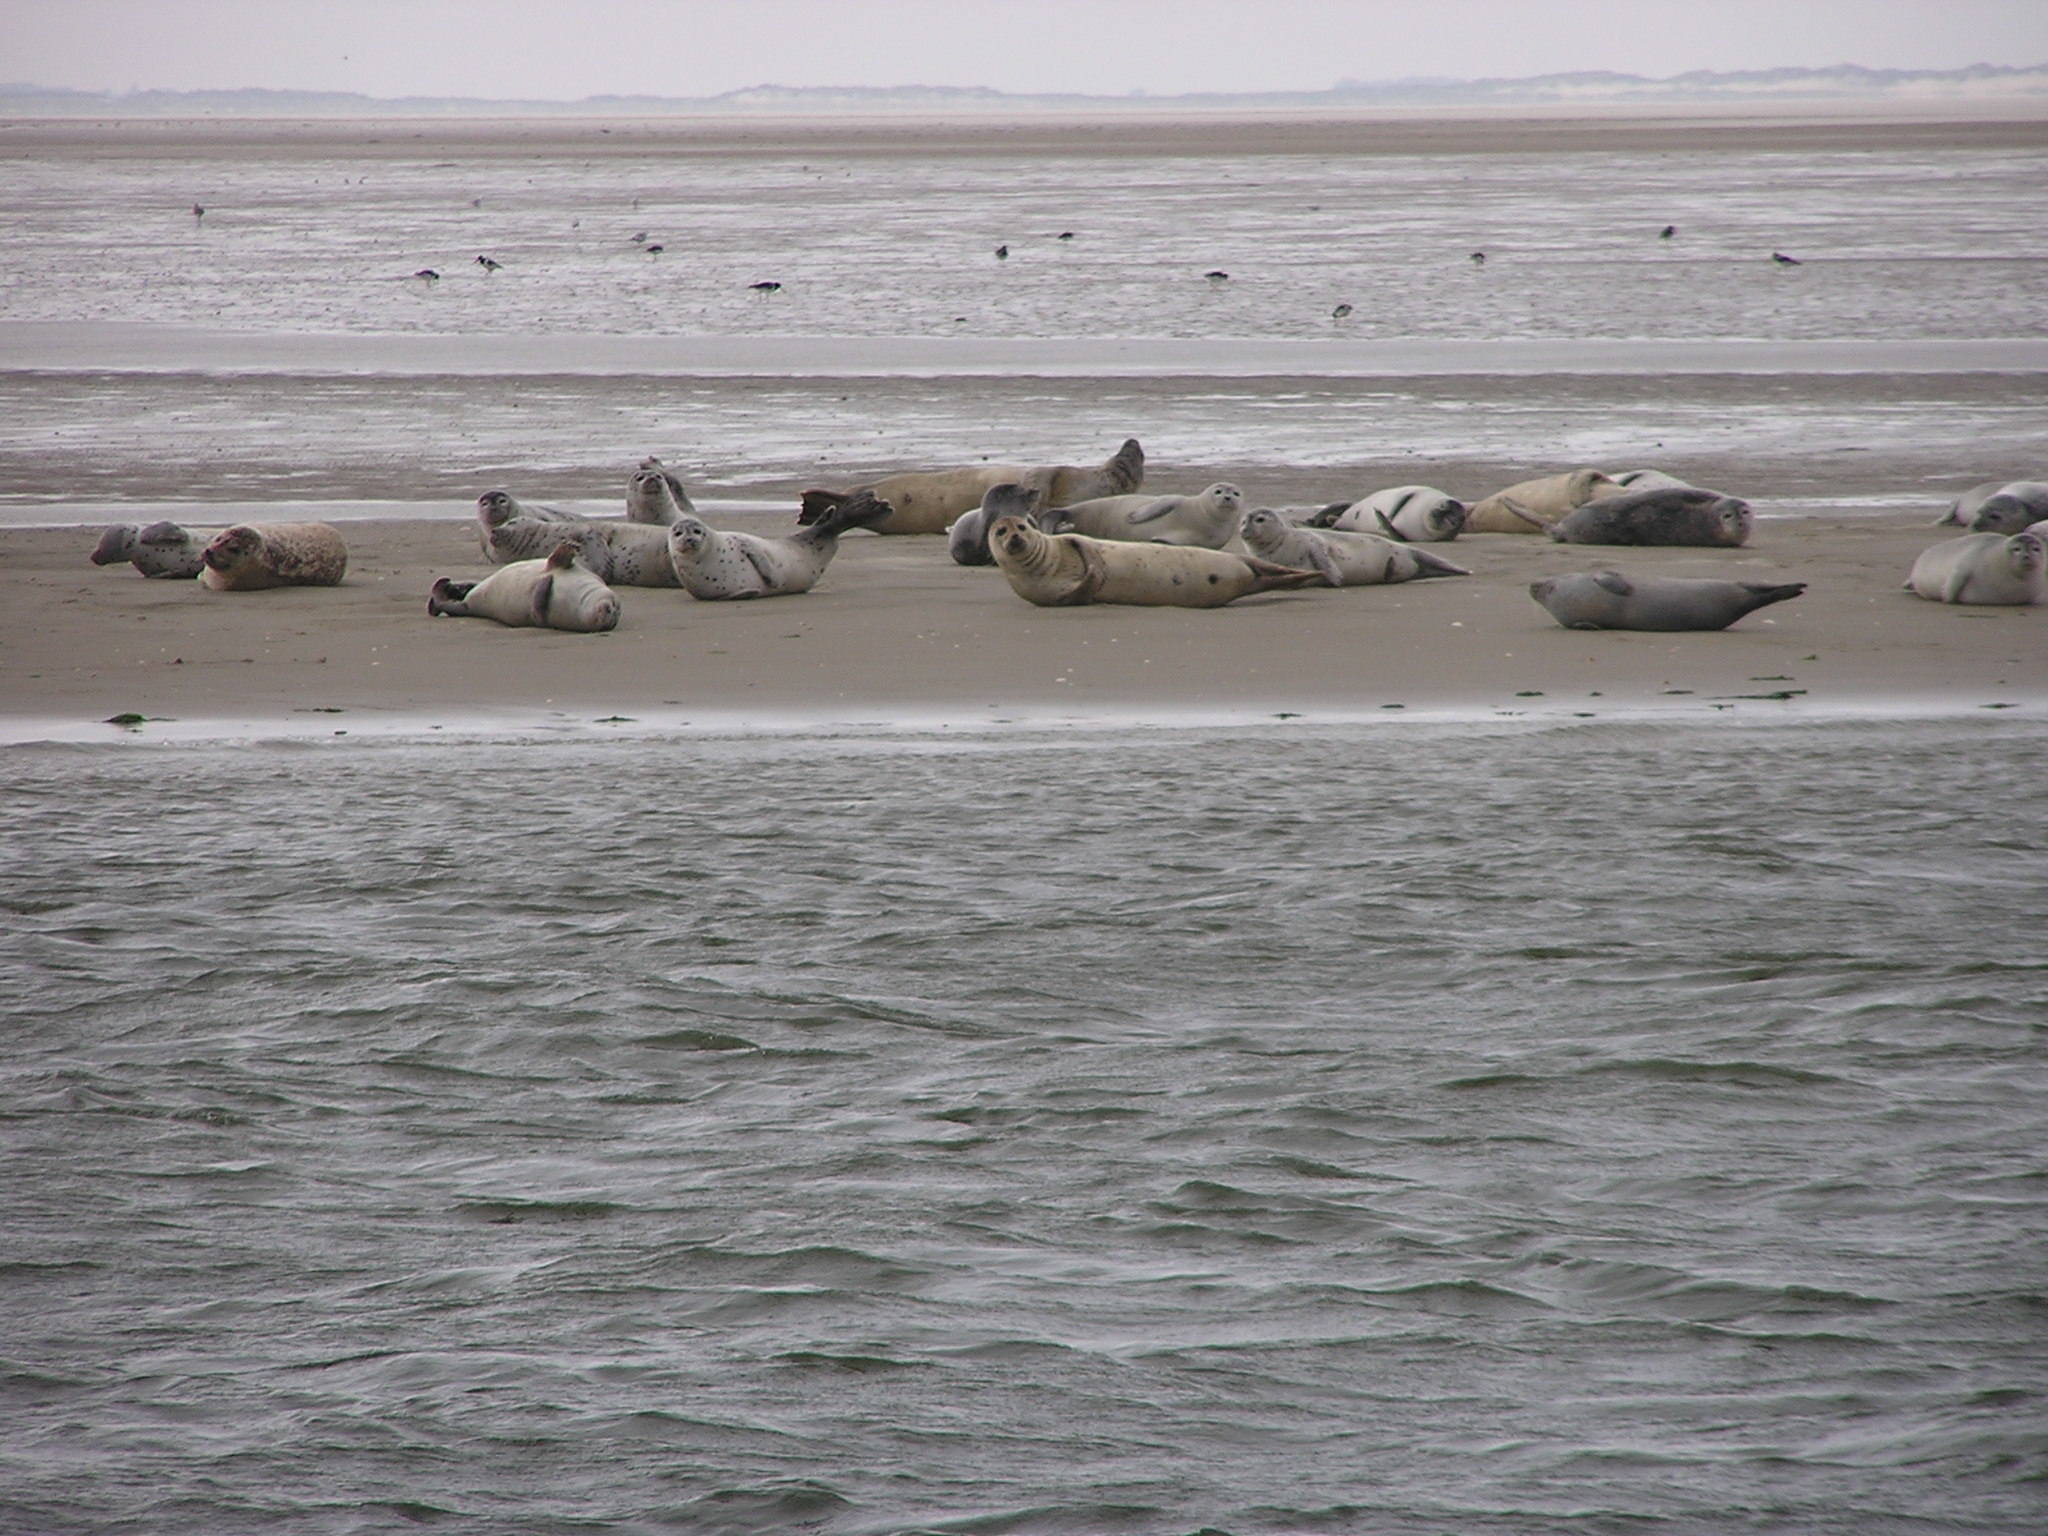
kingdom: Animalia
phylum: Chordata
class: Mammalia
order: Carnivora
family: Phocidae
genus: Phoca
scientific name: Phoca vitulina
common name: Harbor seal
